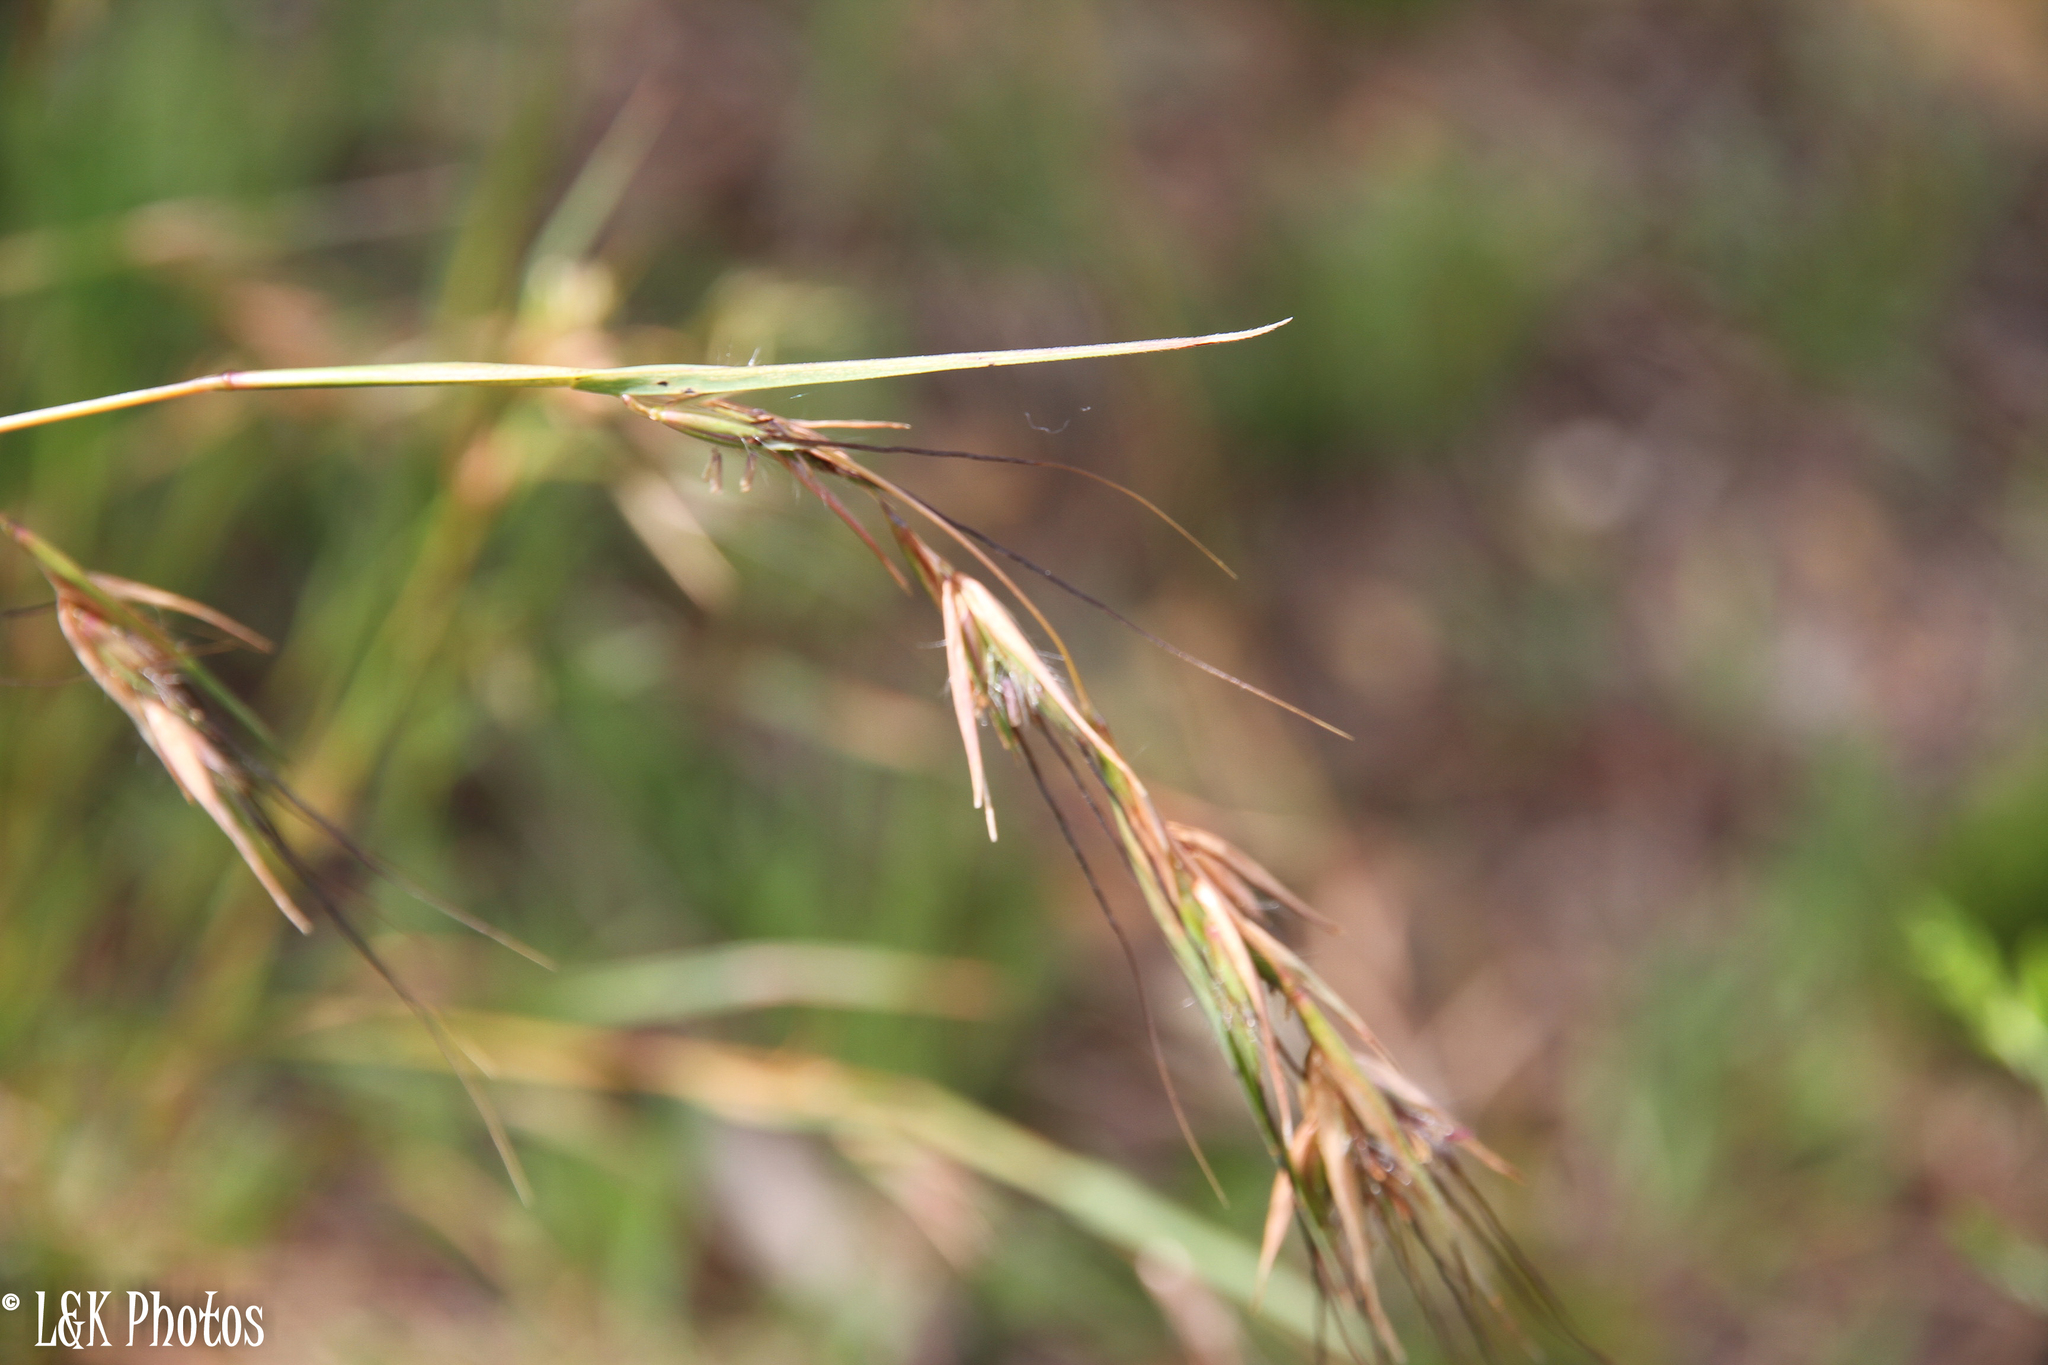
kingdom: Plantae
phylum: Tracheophyta
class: Liliopsida
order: Poales
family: Poaceae
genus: Themeda
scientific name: Themeda triandra
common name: Kangaroo grass
